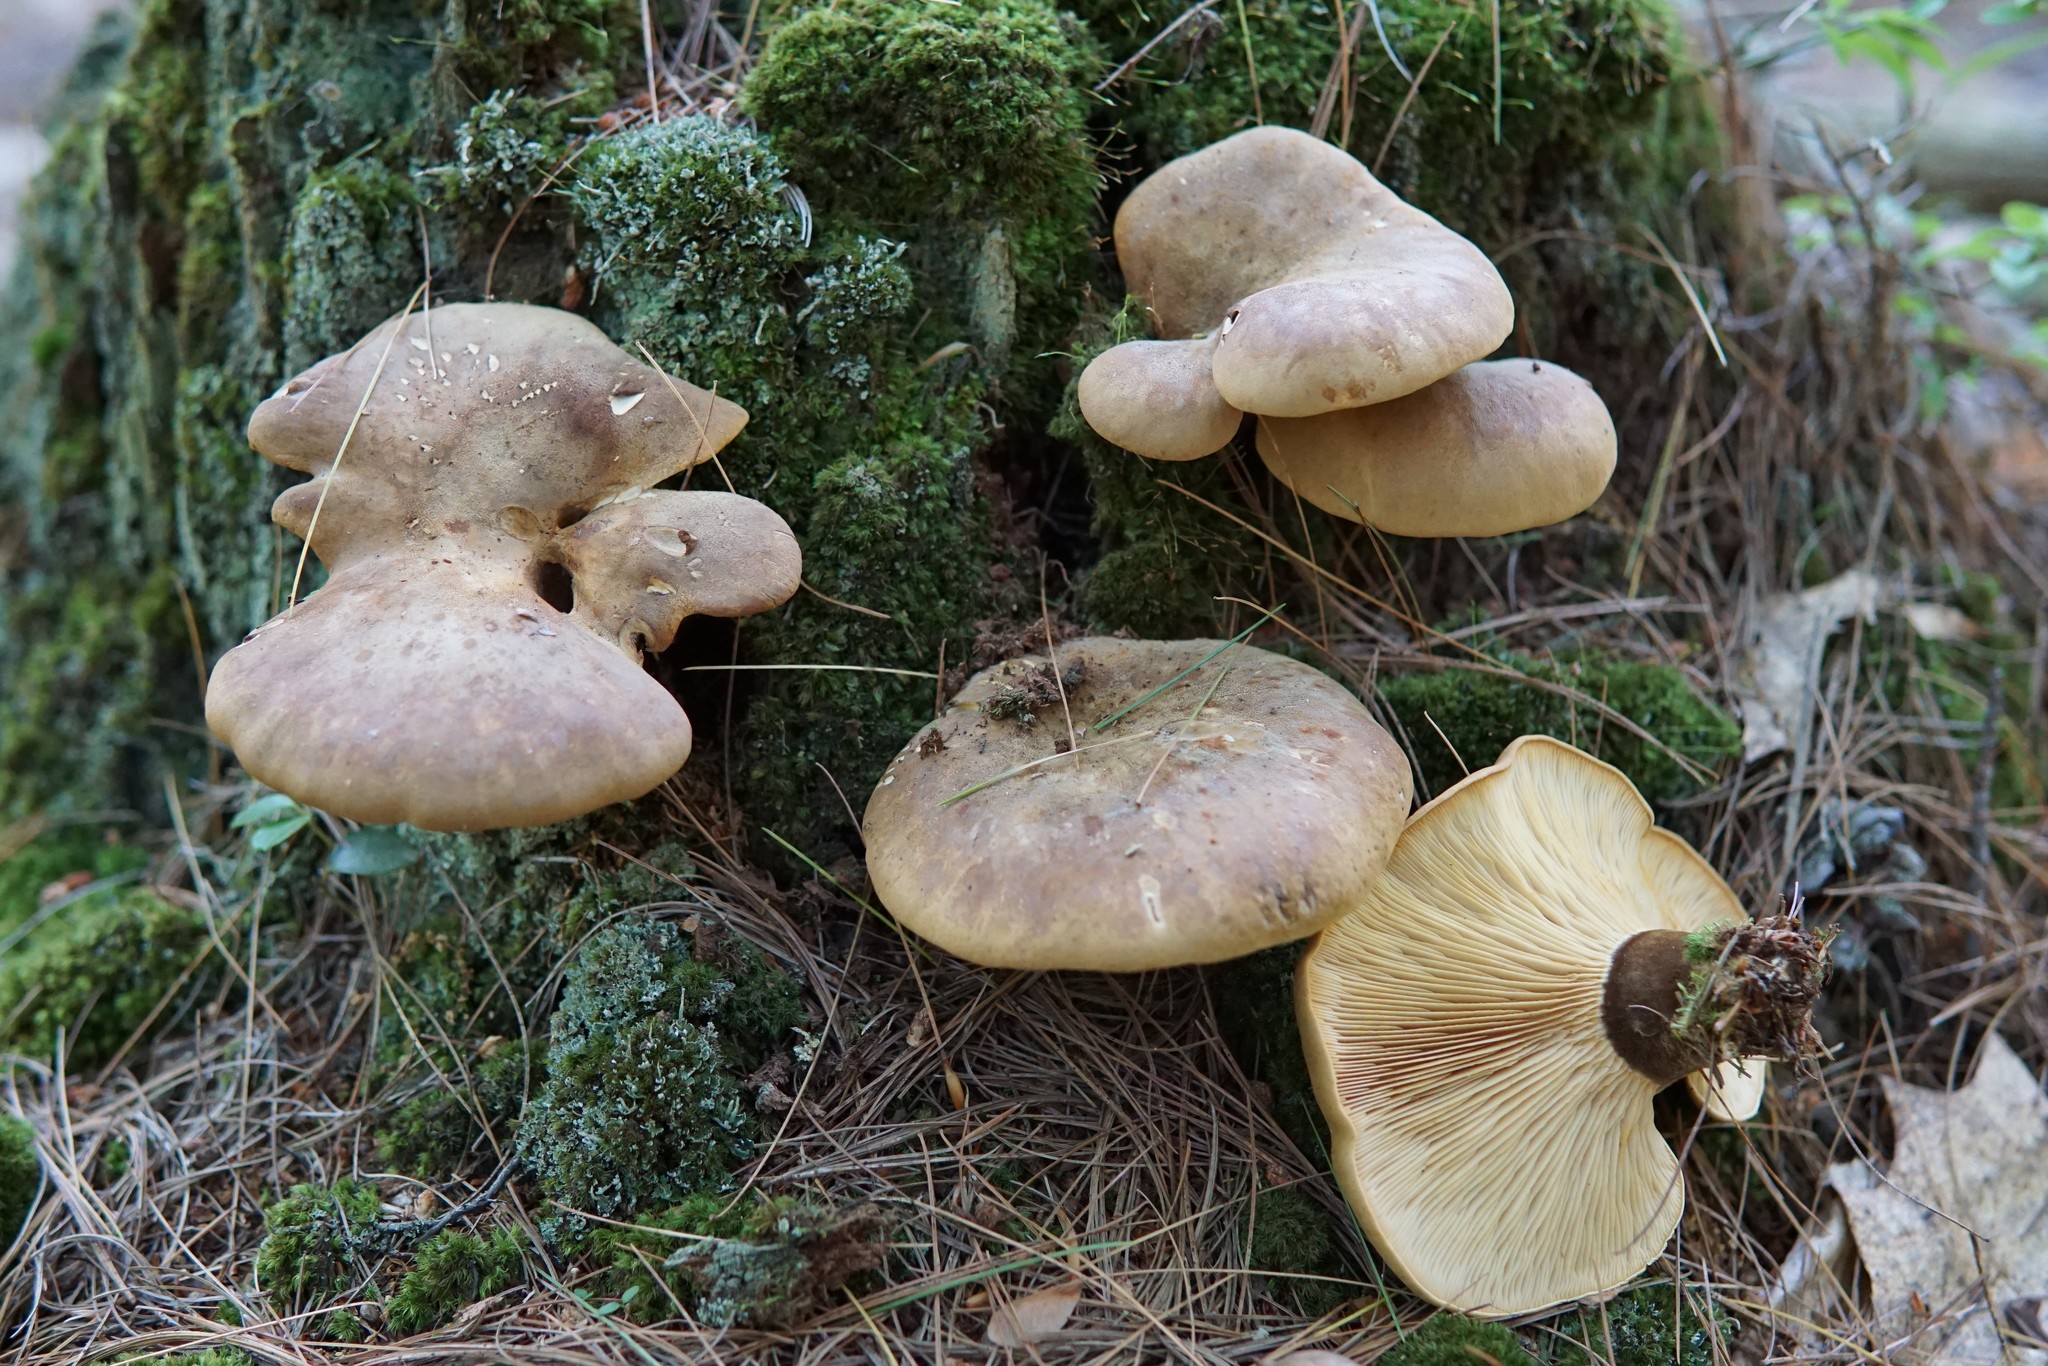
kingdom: Fungi
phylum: Basidiomycota
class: Agaricomycetes
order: Boletales
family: Tapinellaceae
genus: Tapinella
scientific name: Tapinella atrotomentosa
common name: Velvet rollrim
